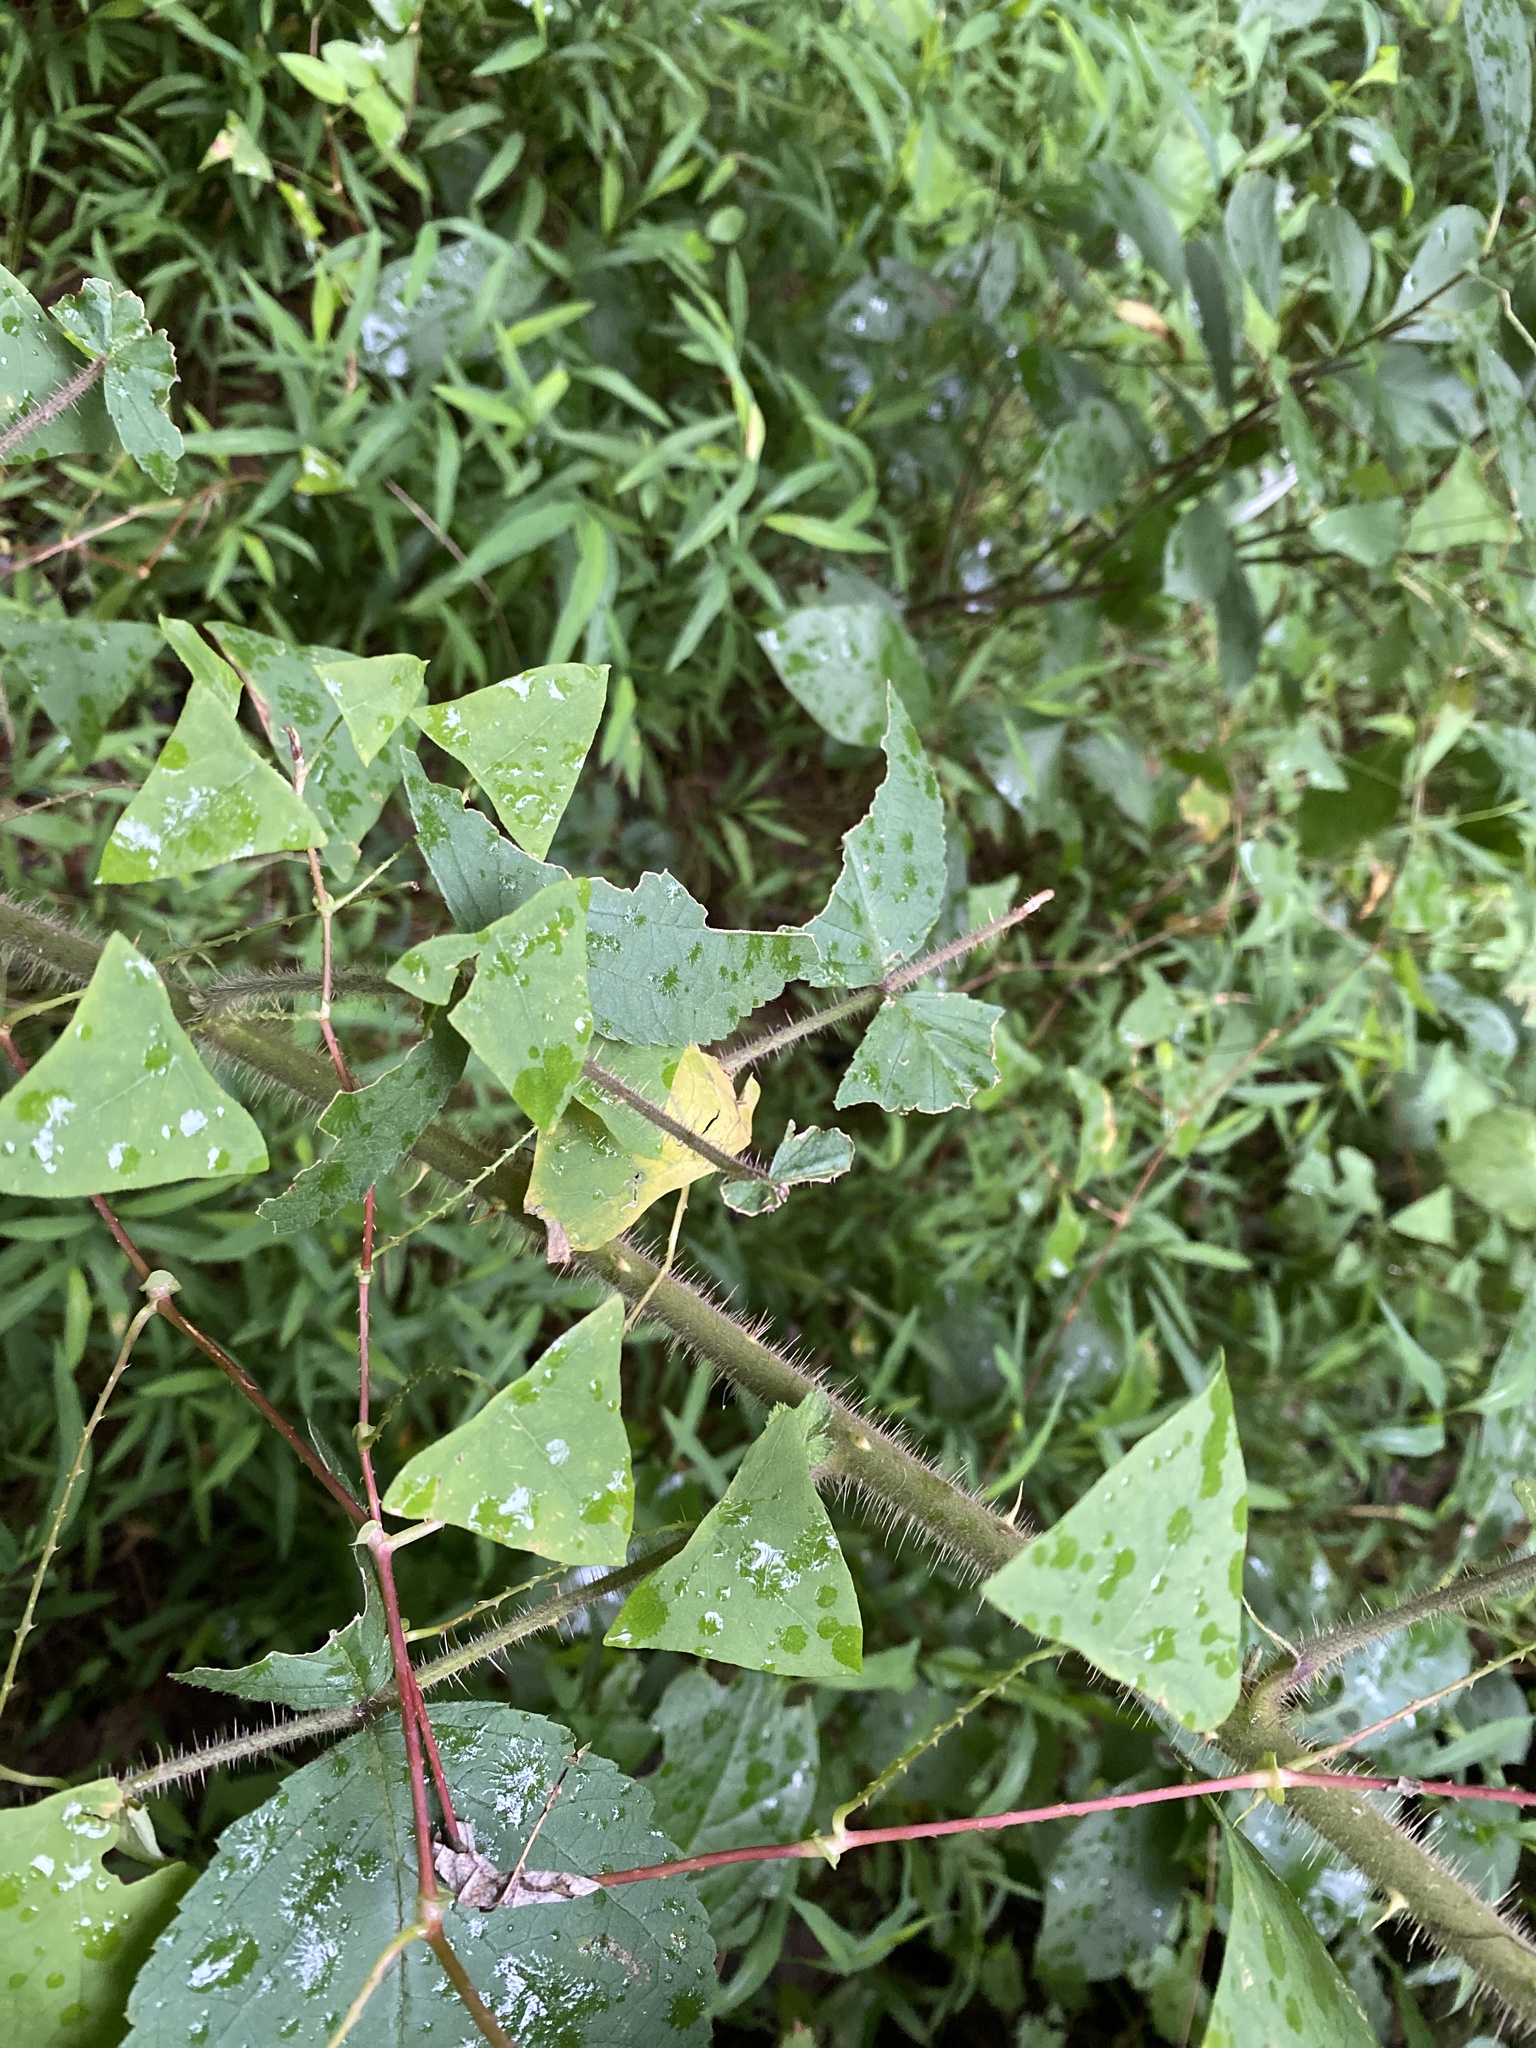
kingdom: Plantae
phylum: Tracheophyta
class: Magnoliopsida
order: Caryophyllales
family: Polygonaceae
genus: Persicaria
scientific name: Persicaria perfoliata
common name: Asiatic tearthumb
